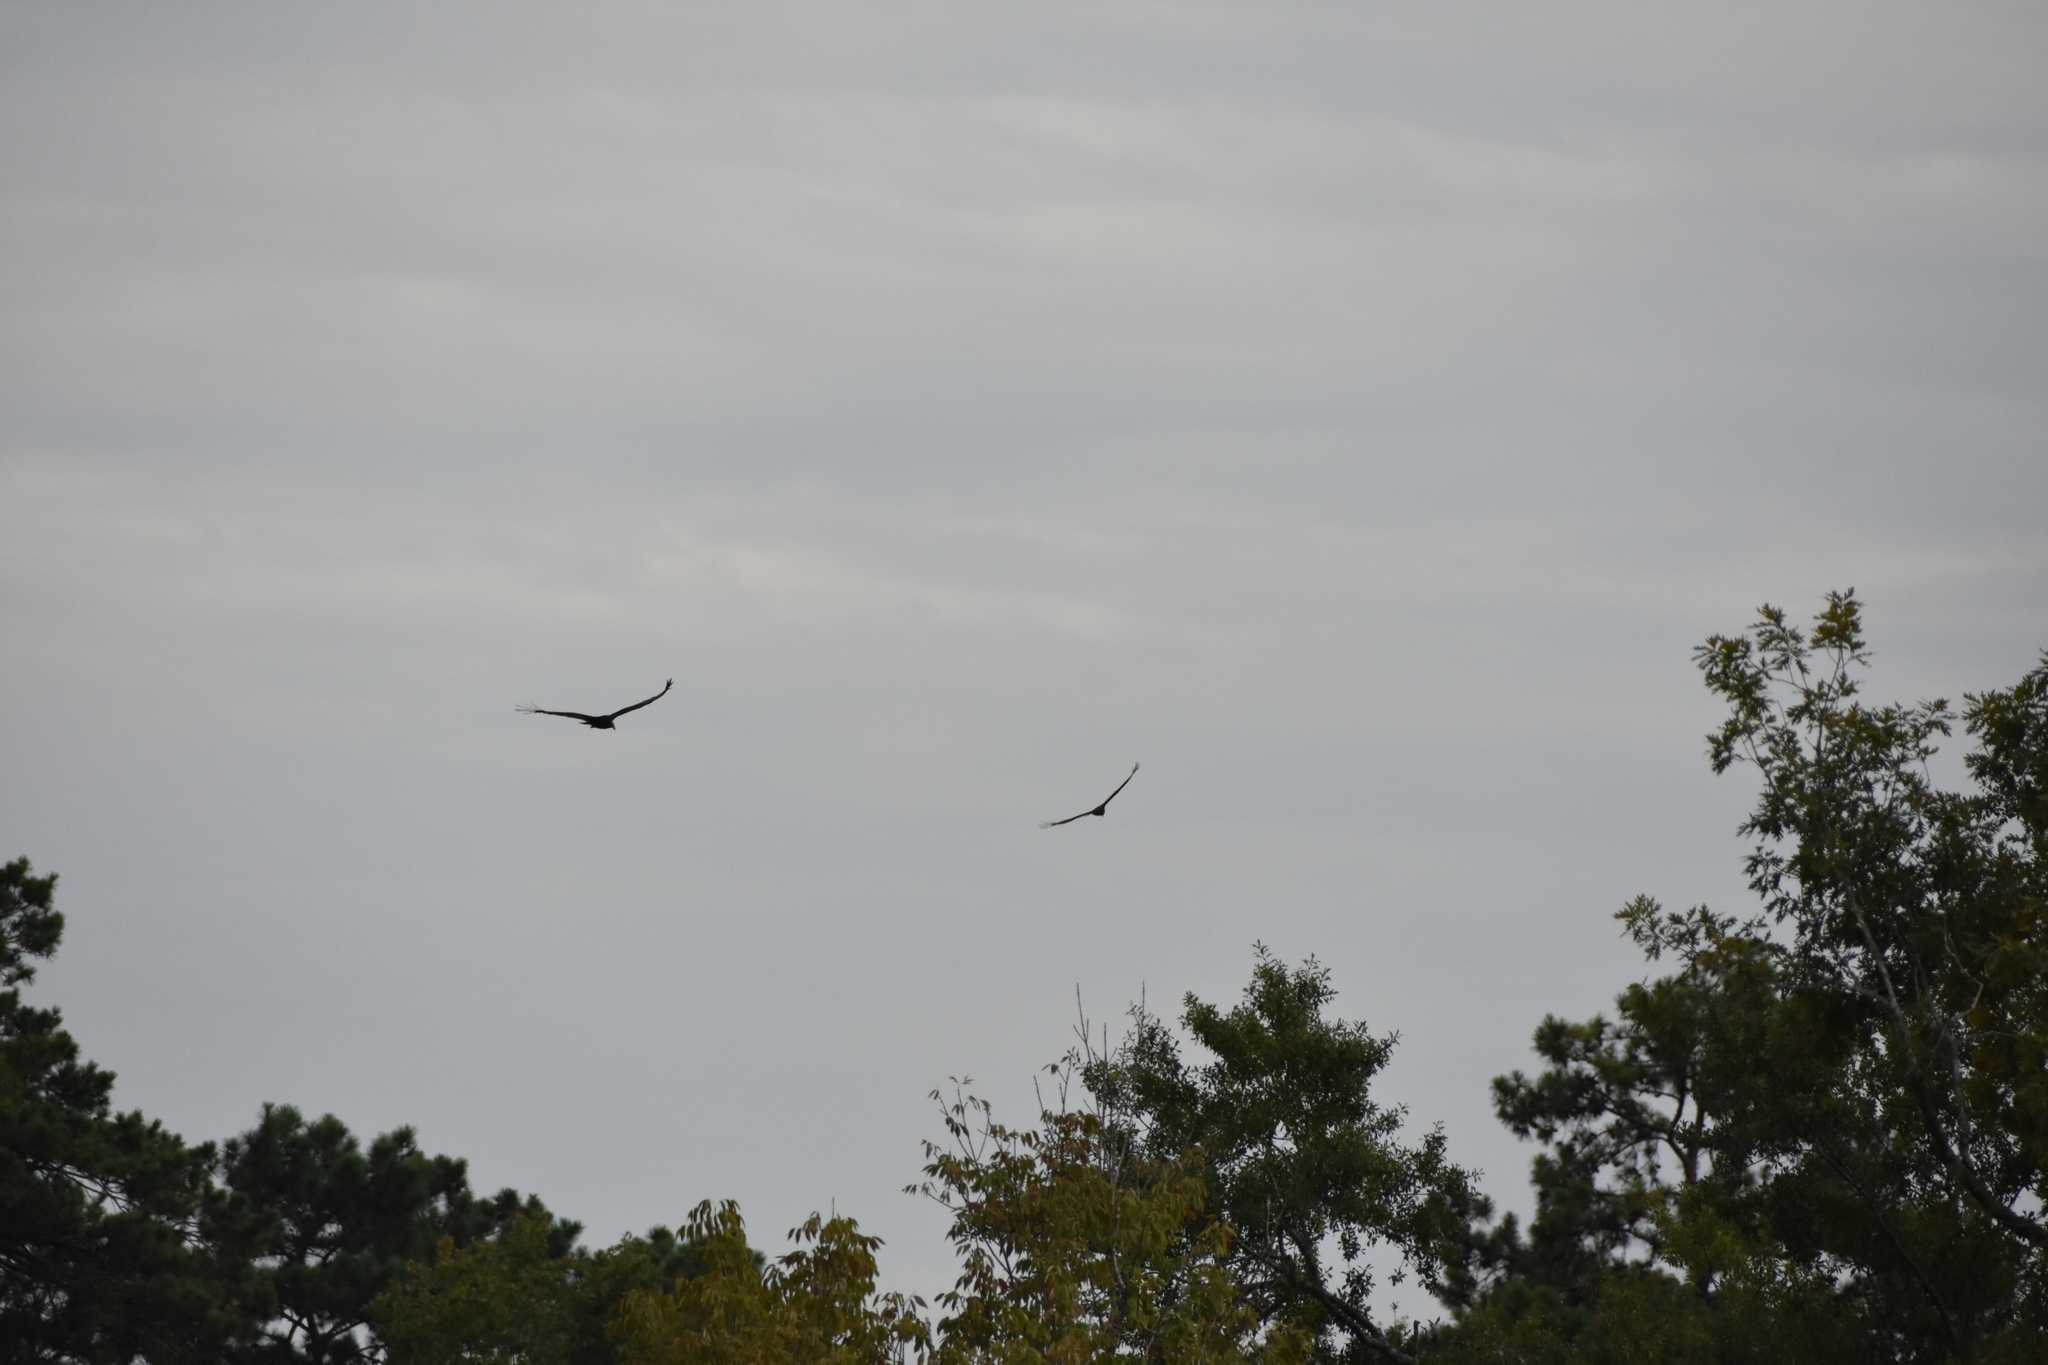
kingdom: Animalia
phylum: Chordata
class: Aves
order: Accipitriformes
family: Cathartidae
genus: Cathartes
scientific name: Cathartes aura
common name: Turkey vulture
